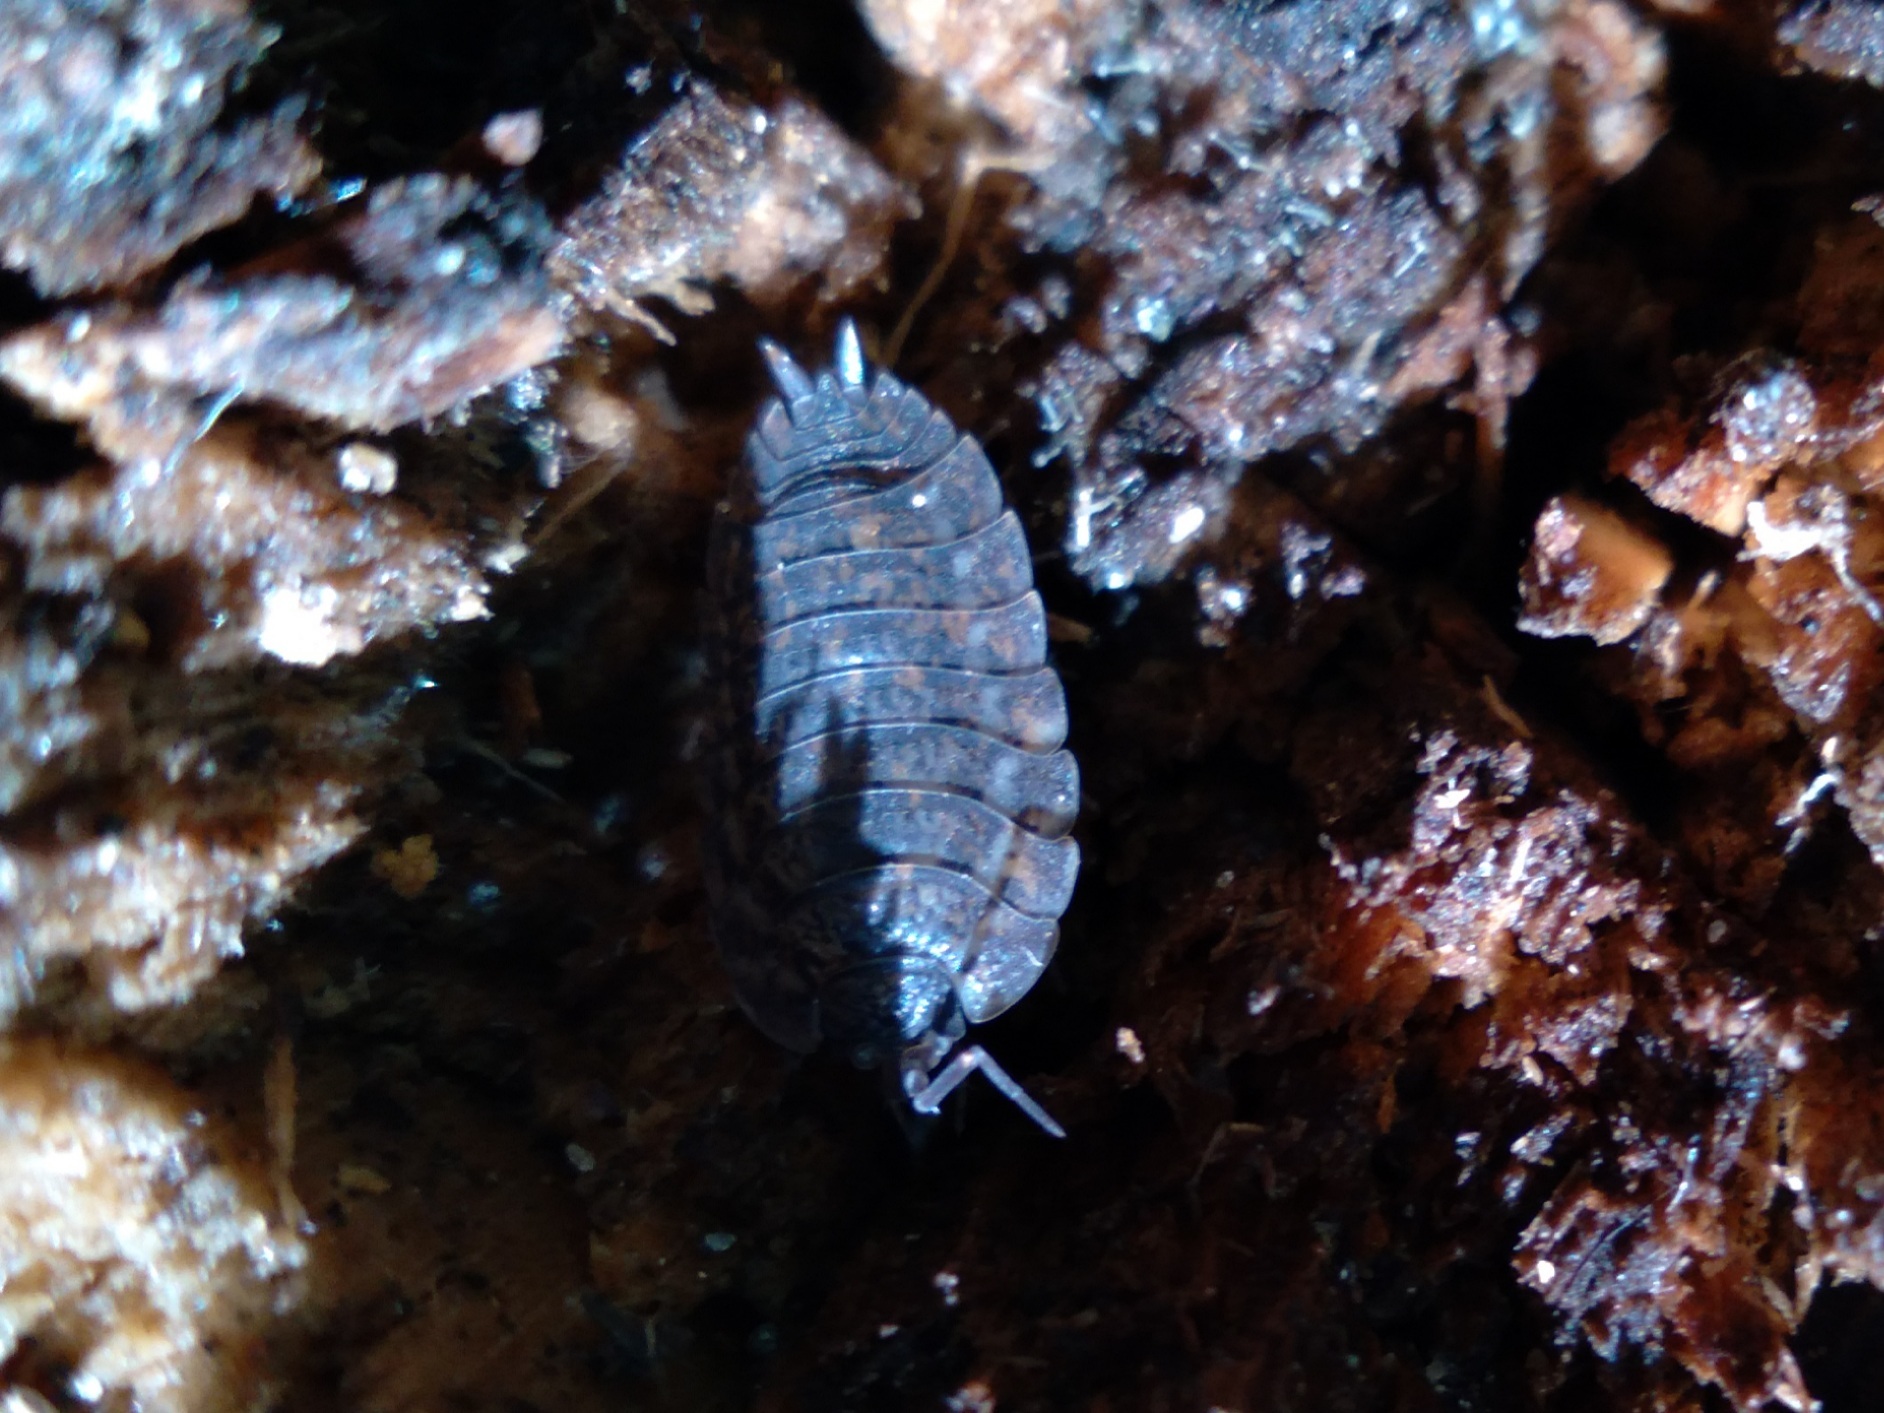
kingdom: Animalia
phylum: Arthropoda
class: Malacostraca
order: Isopoda
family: Trachelipodidae
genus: Trachelipus
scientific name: Trachelipus rathkii
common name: Isopod
